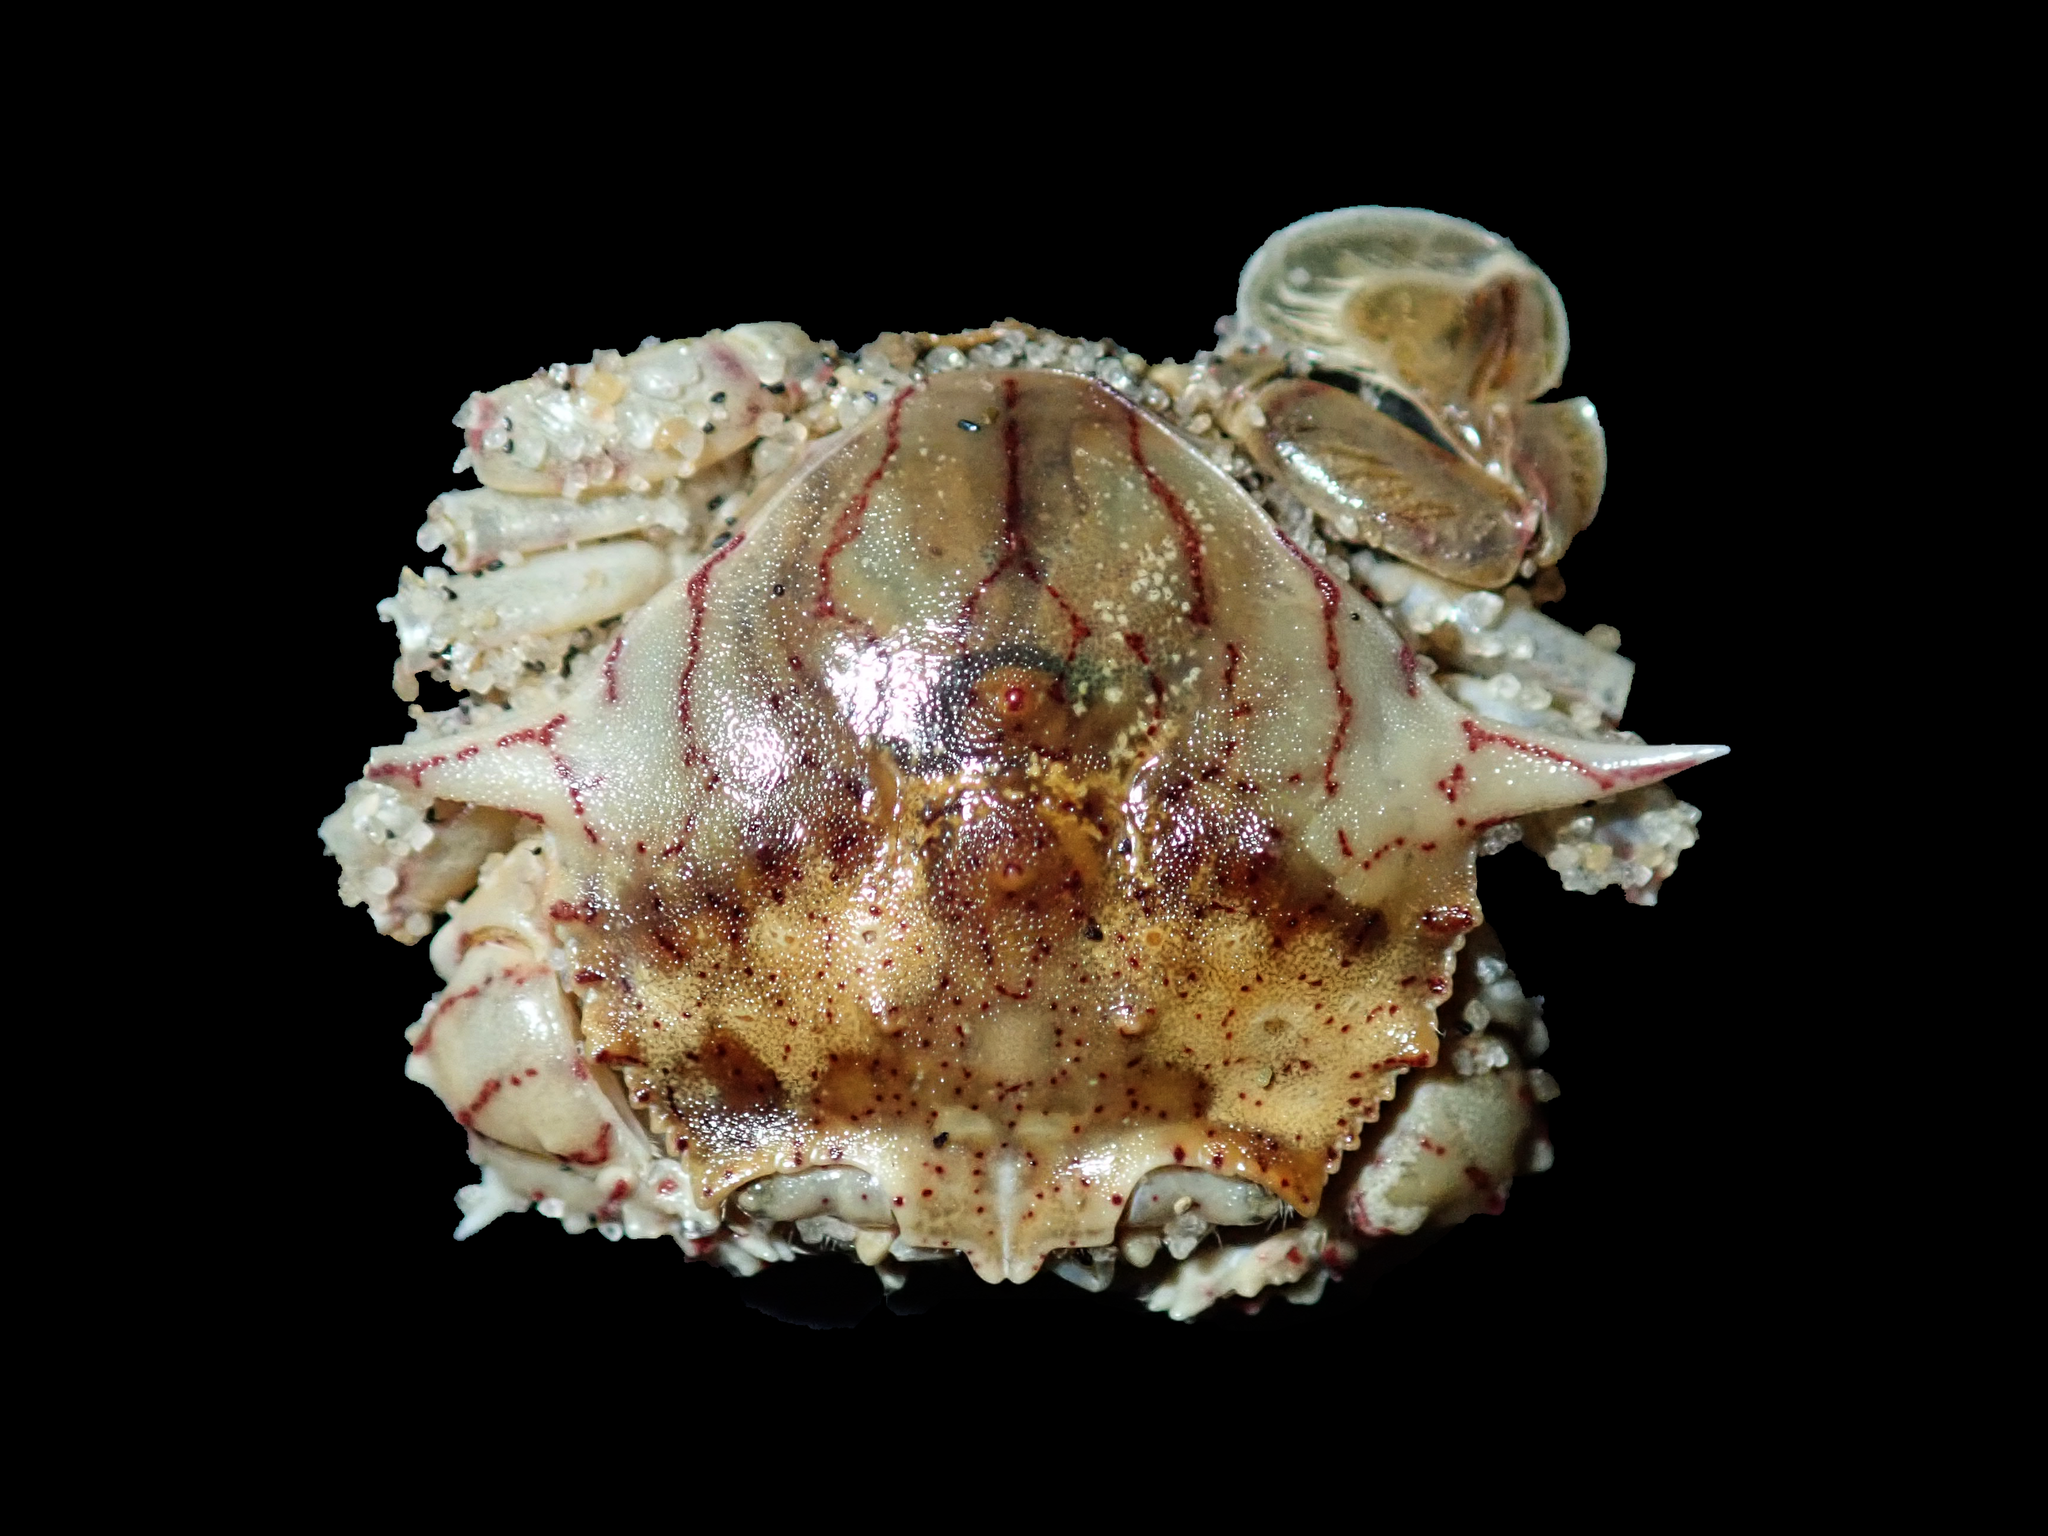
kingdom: Animalia
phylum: Arthropoda
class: Malacostraca
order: Decapoda
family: Matutidae
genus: Matuta
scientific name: Matuta planipes
